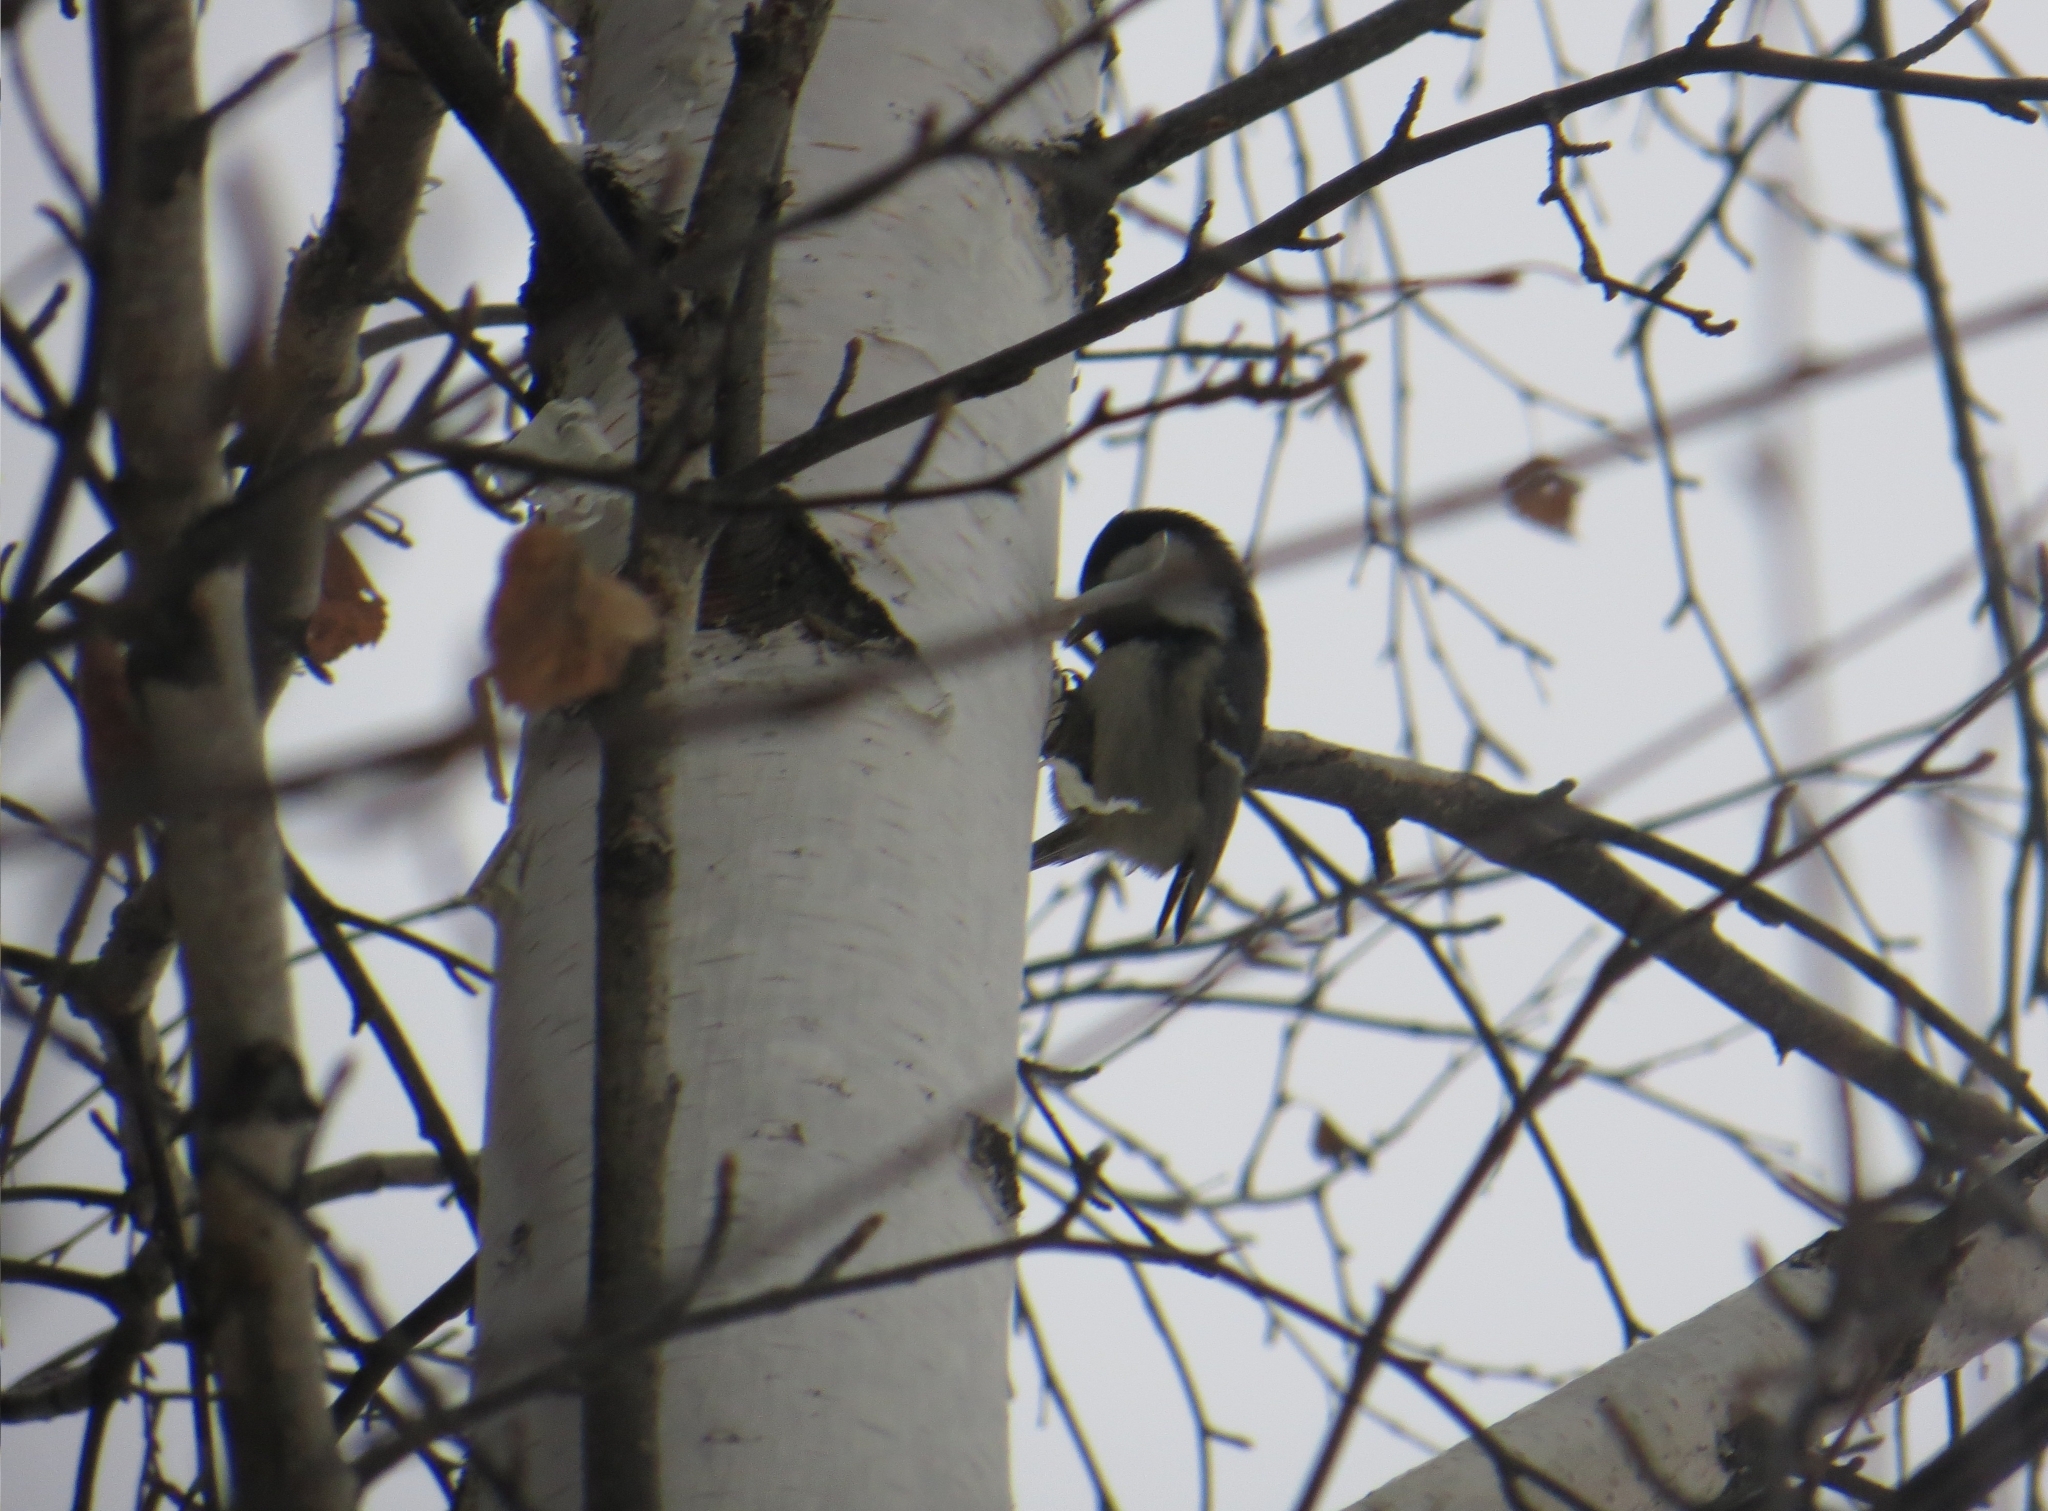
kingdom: Animalia
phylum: Chordata
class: Aves
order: Passeriformes
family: Paridae
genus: Periparus
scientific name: Periparus ater
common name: Coal tit
